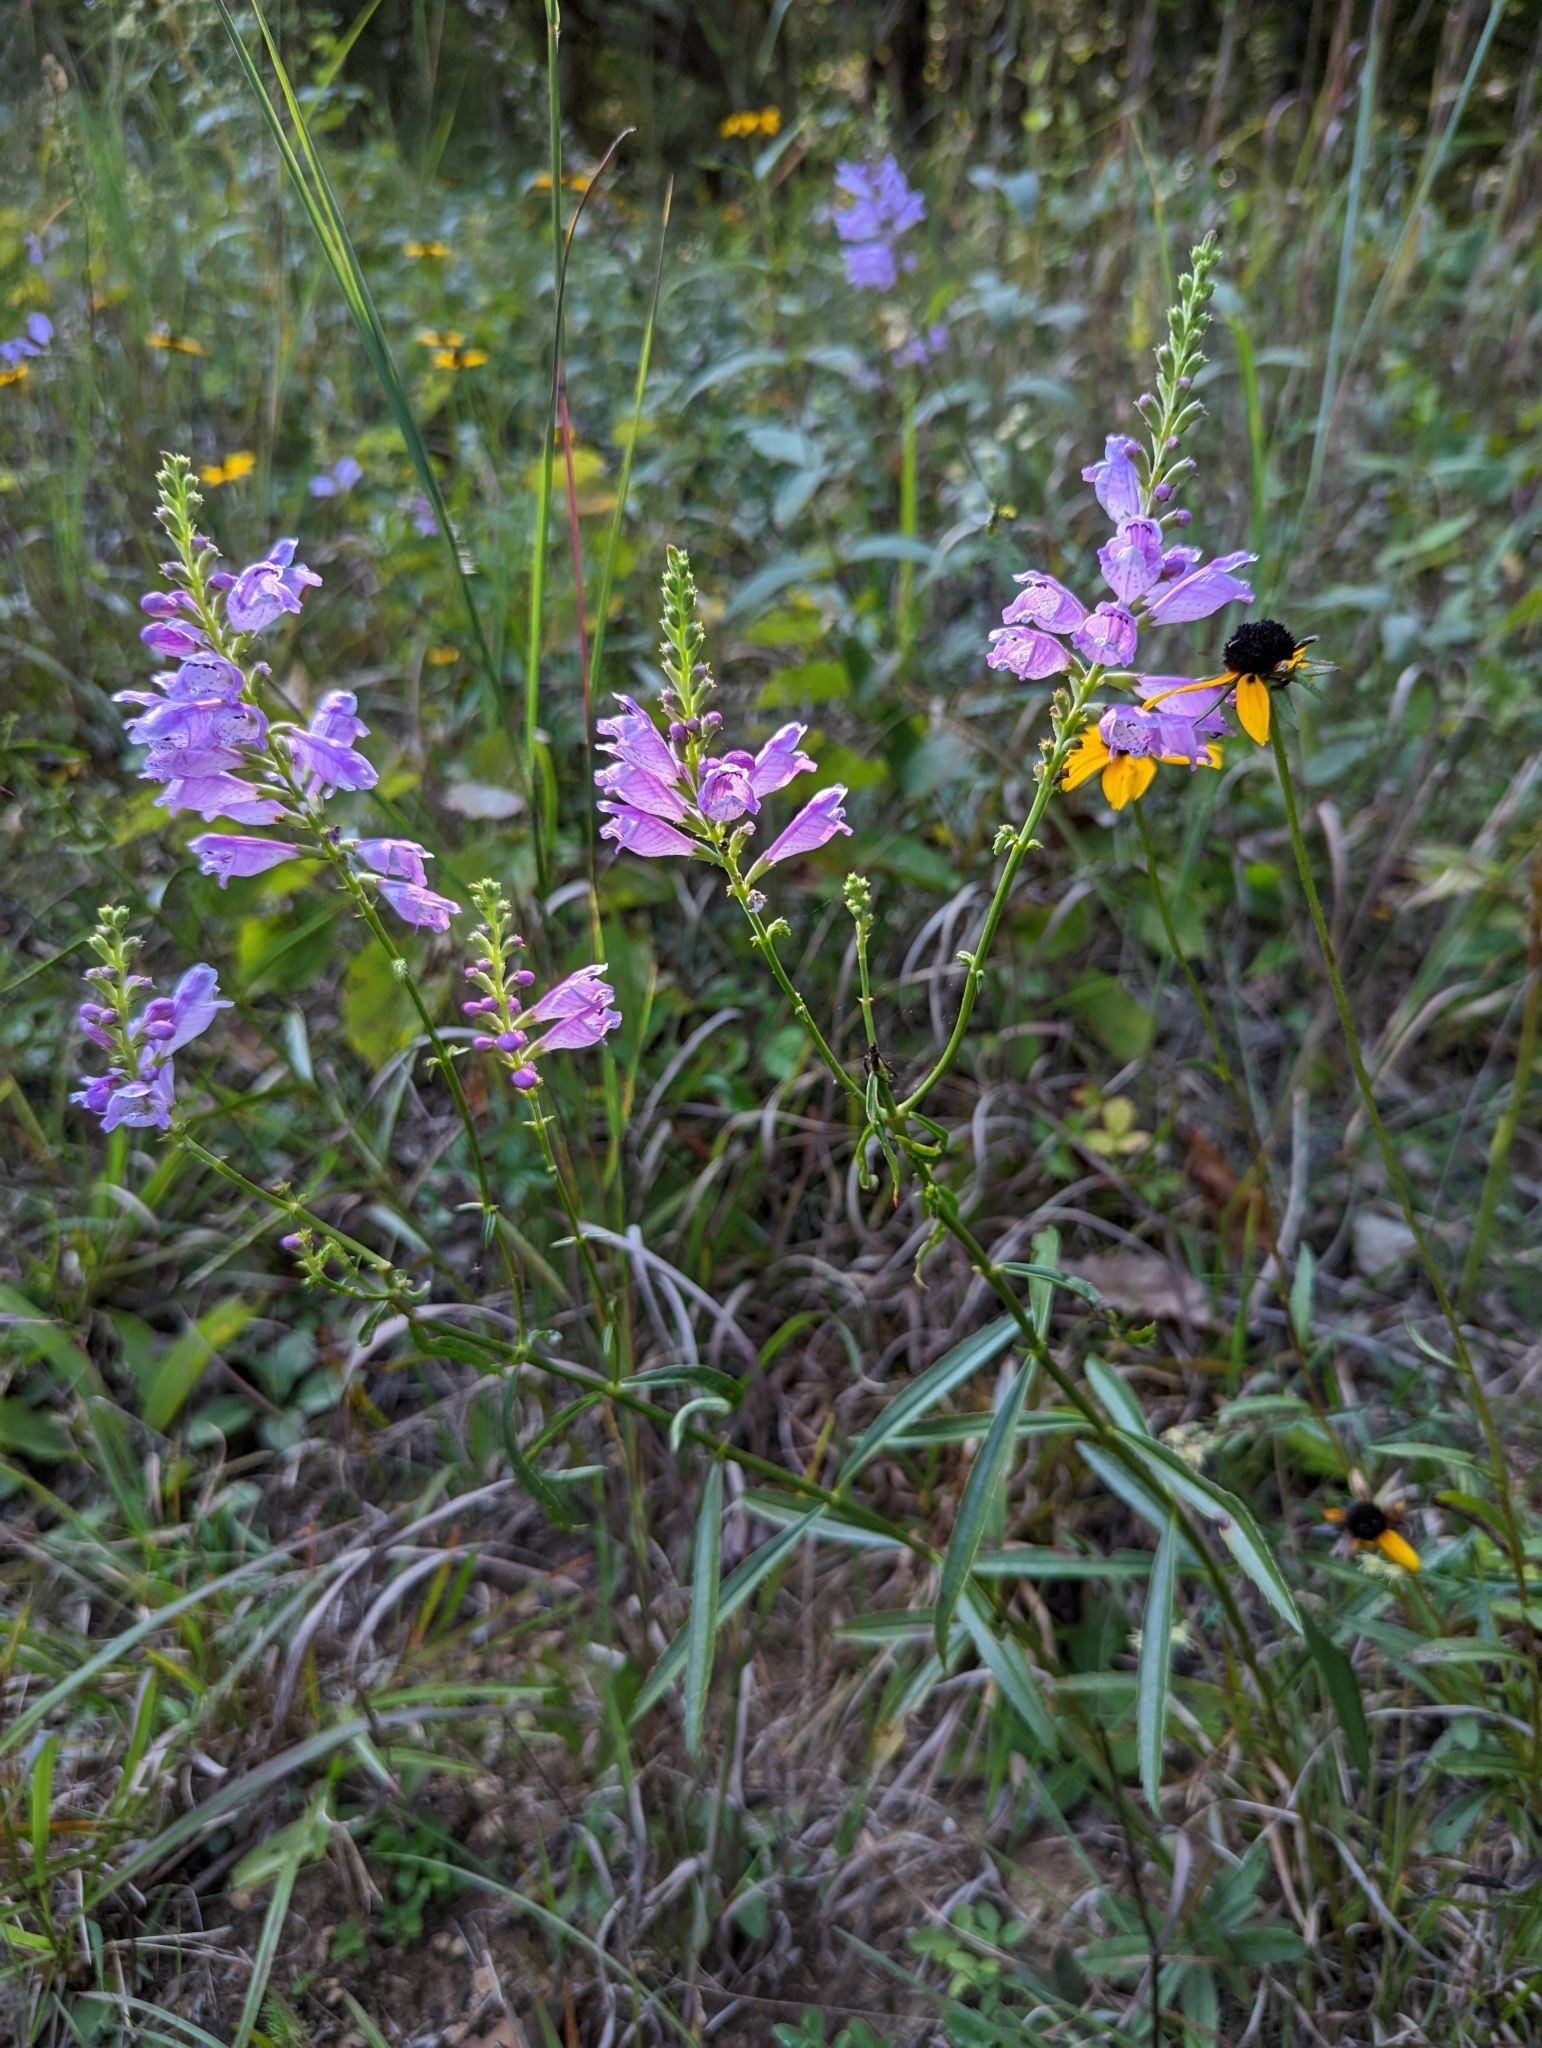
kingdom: Plantae
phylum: Tracheophyta
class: Magnoliopsida
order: Lamiales
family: Lamiaceae
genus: Physostegia
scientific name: Physostegia virginiana
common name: Obedient-plant
